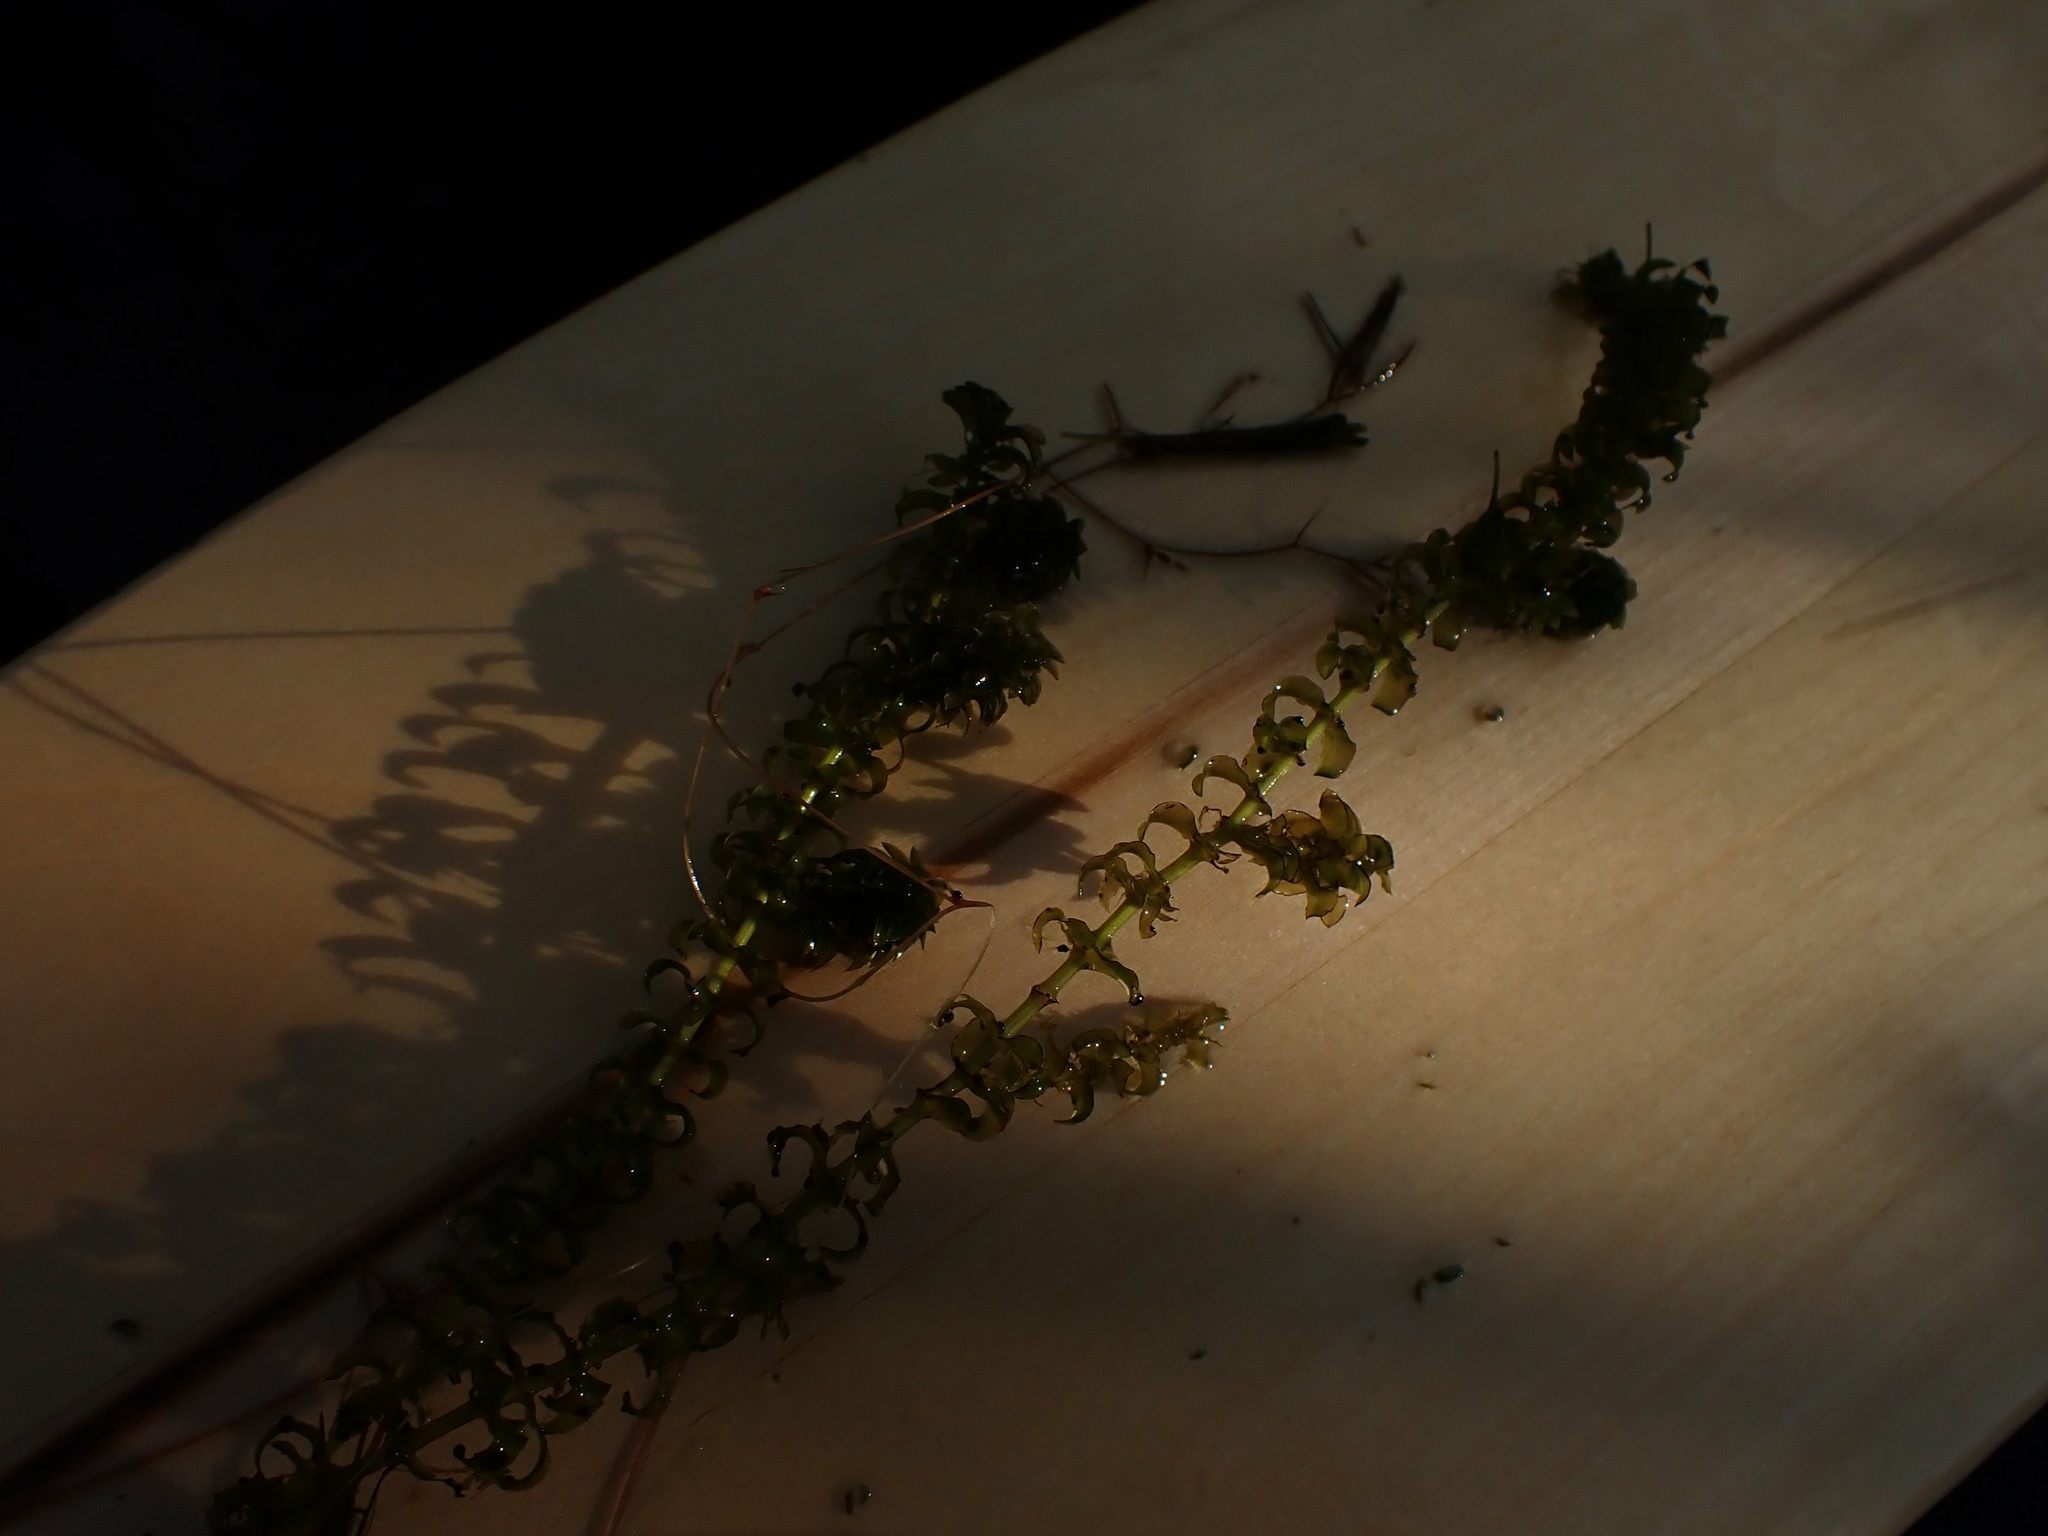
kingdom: Plantae
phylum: Tracheophyta
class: Liliopsida
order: Alismatales
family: Hydrocharitaceae
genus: Elodea
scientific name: Elodea canadensis
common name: Canadian waterweed
